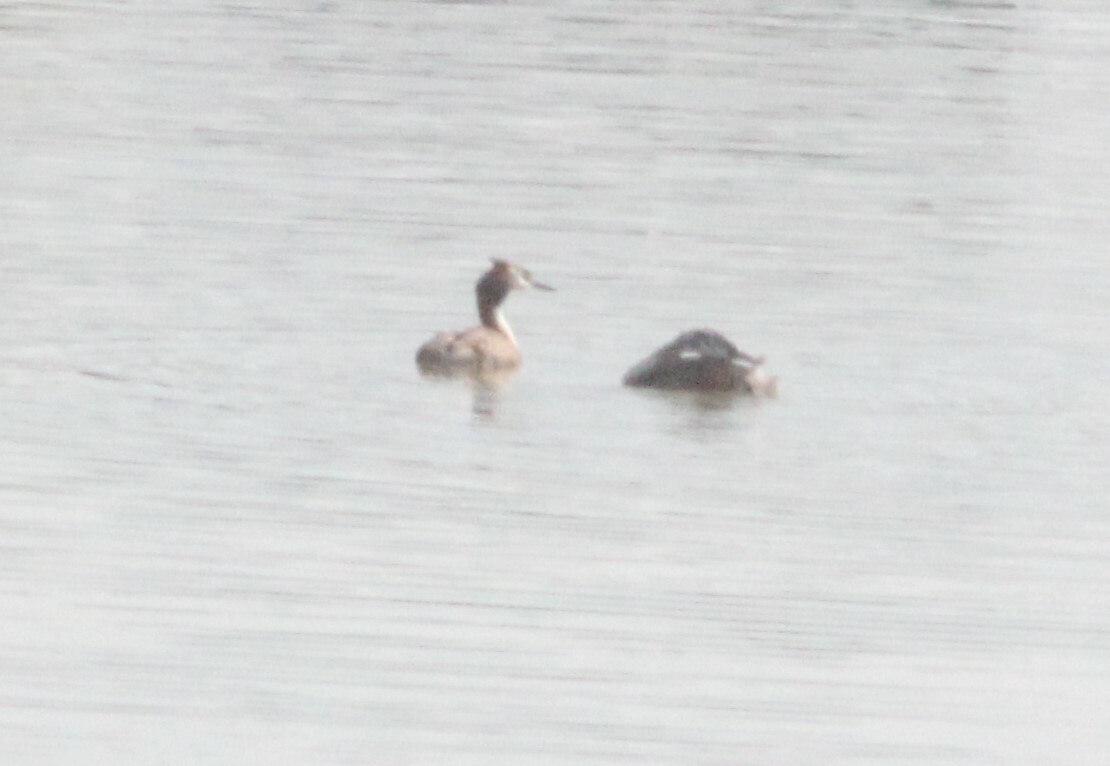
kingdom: Animalia
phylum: Chordata
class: Aves
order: Podicipediformes
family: Podicipedidae
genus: Podiceps
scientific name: Podiceps cristatus
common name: Great crested grebe
